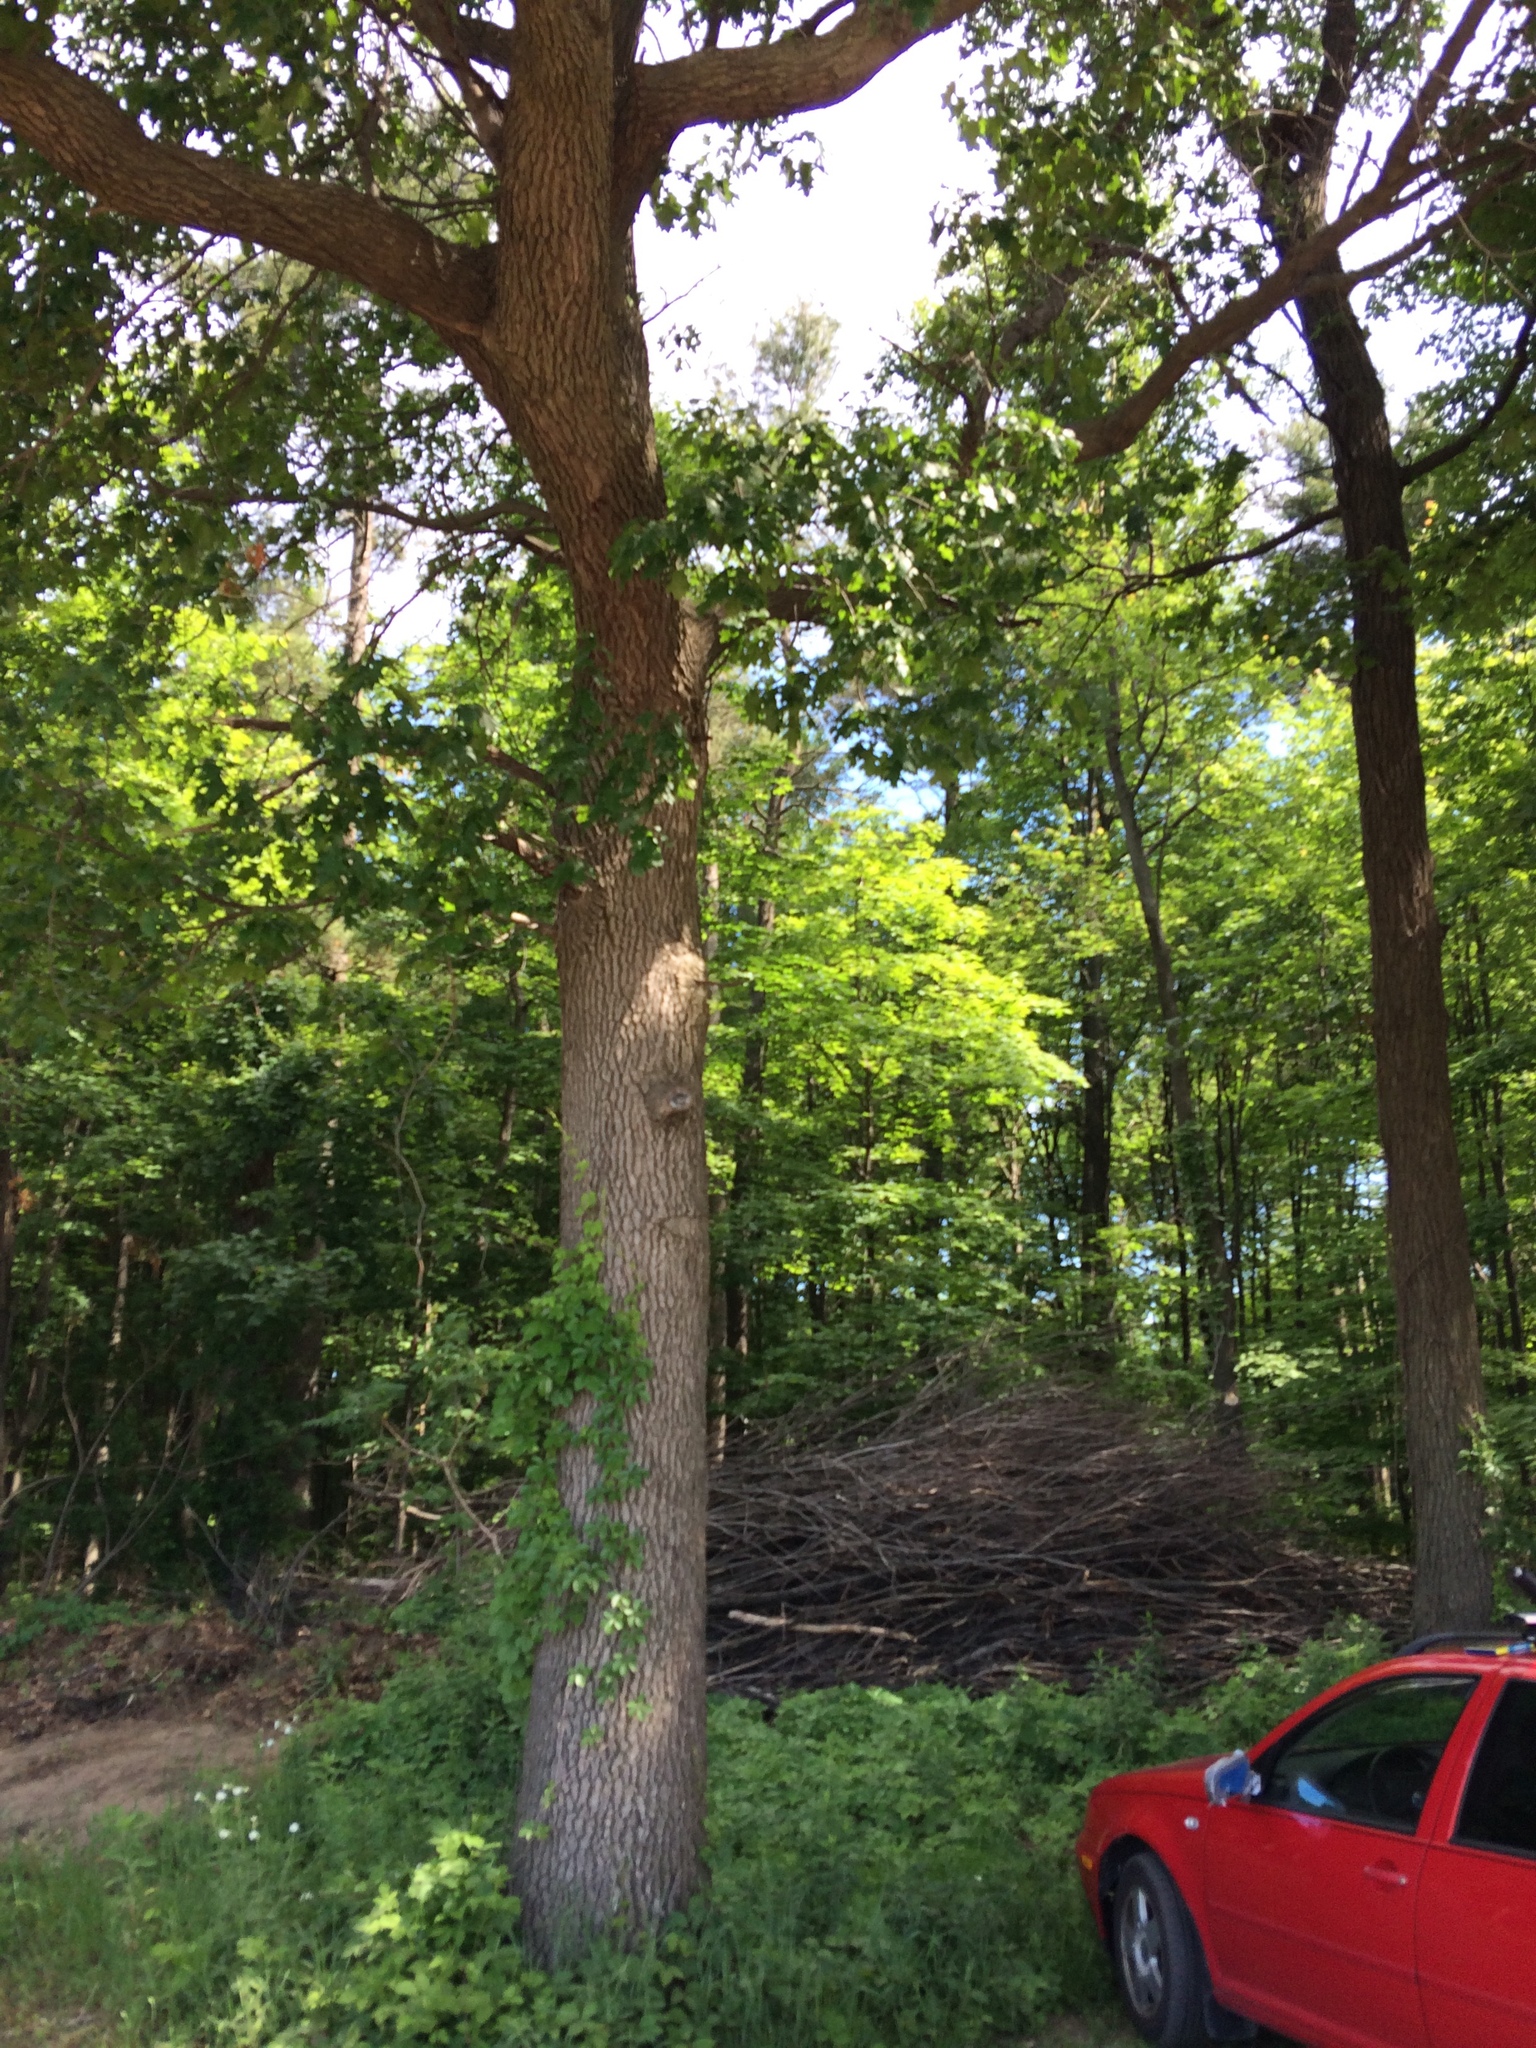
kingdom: Plantae
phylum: Tracheophyta
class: Magnoliopsida
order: Fagales
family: Fagaceae
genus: Quercus
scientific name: Quercus velutina
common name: Black oak
